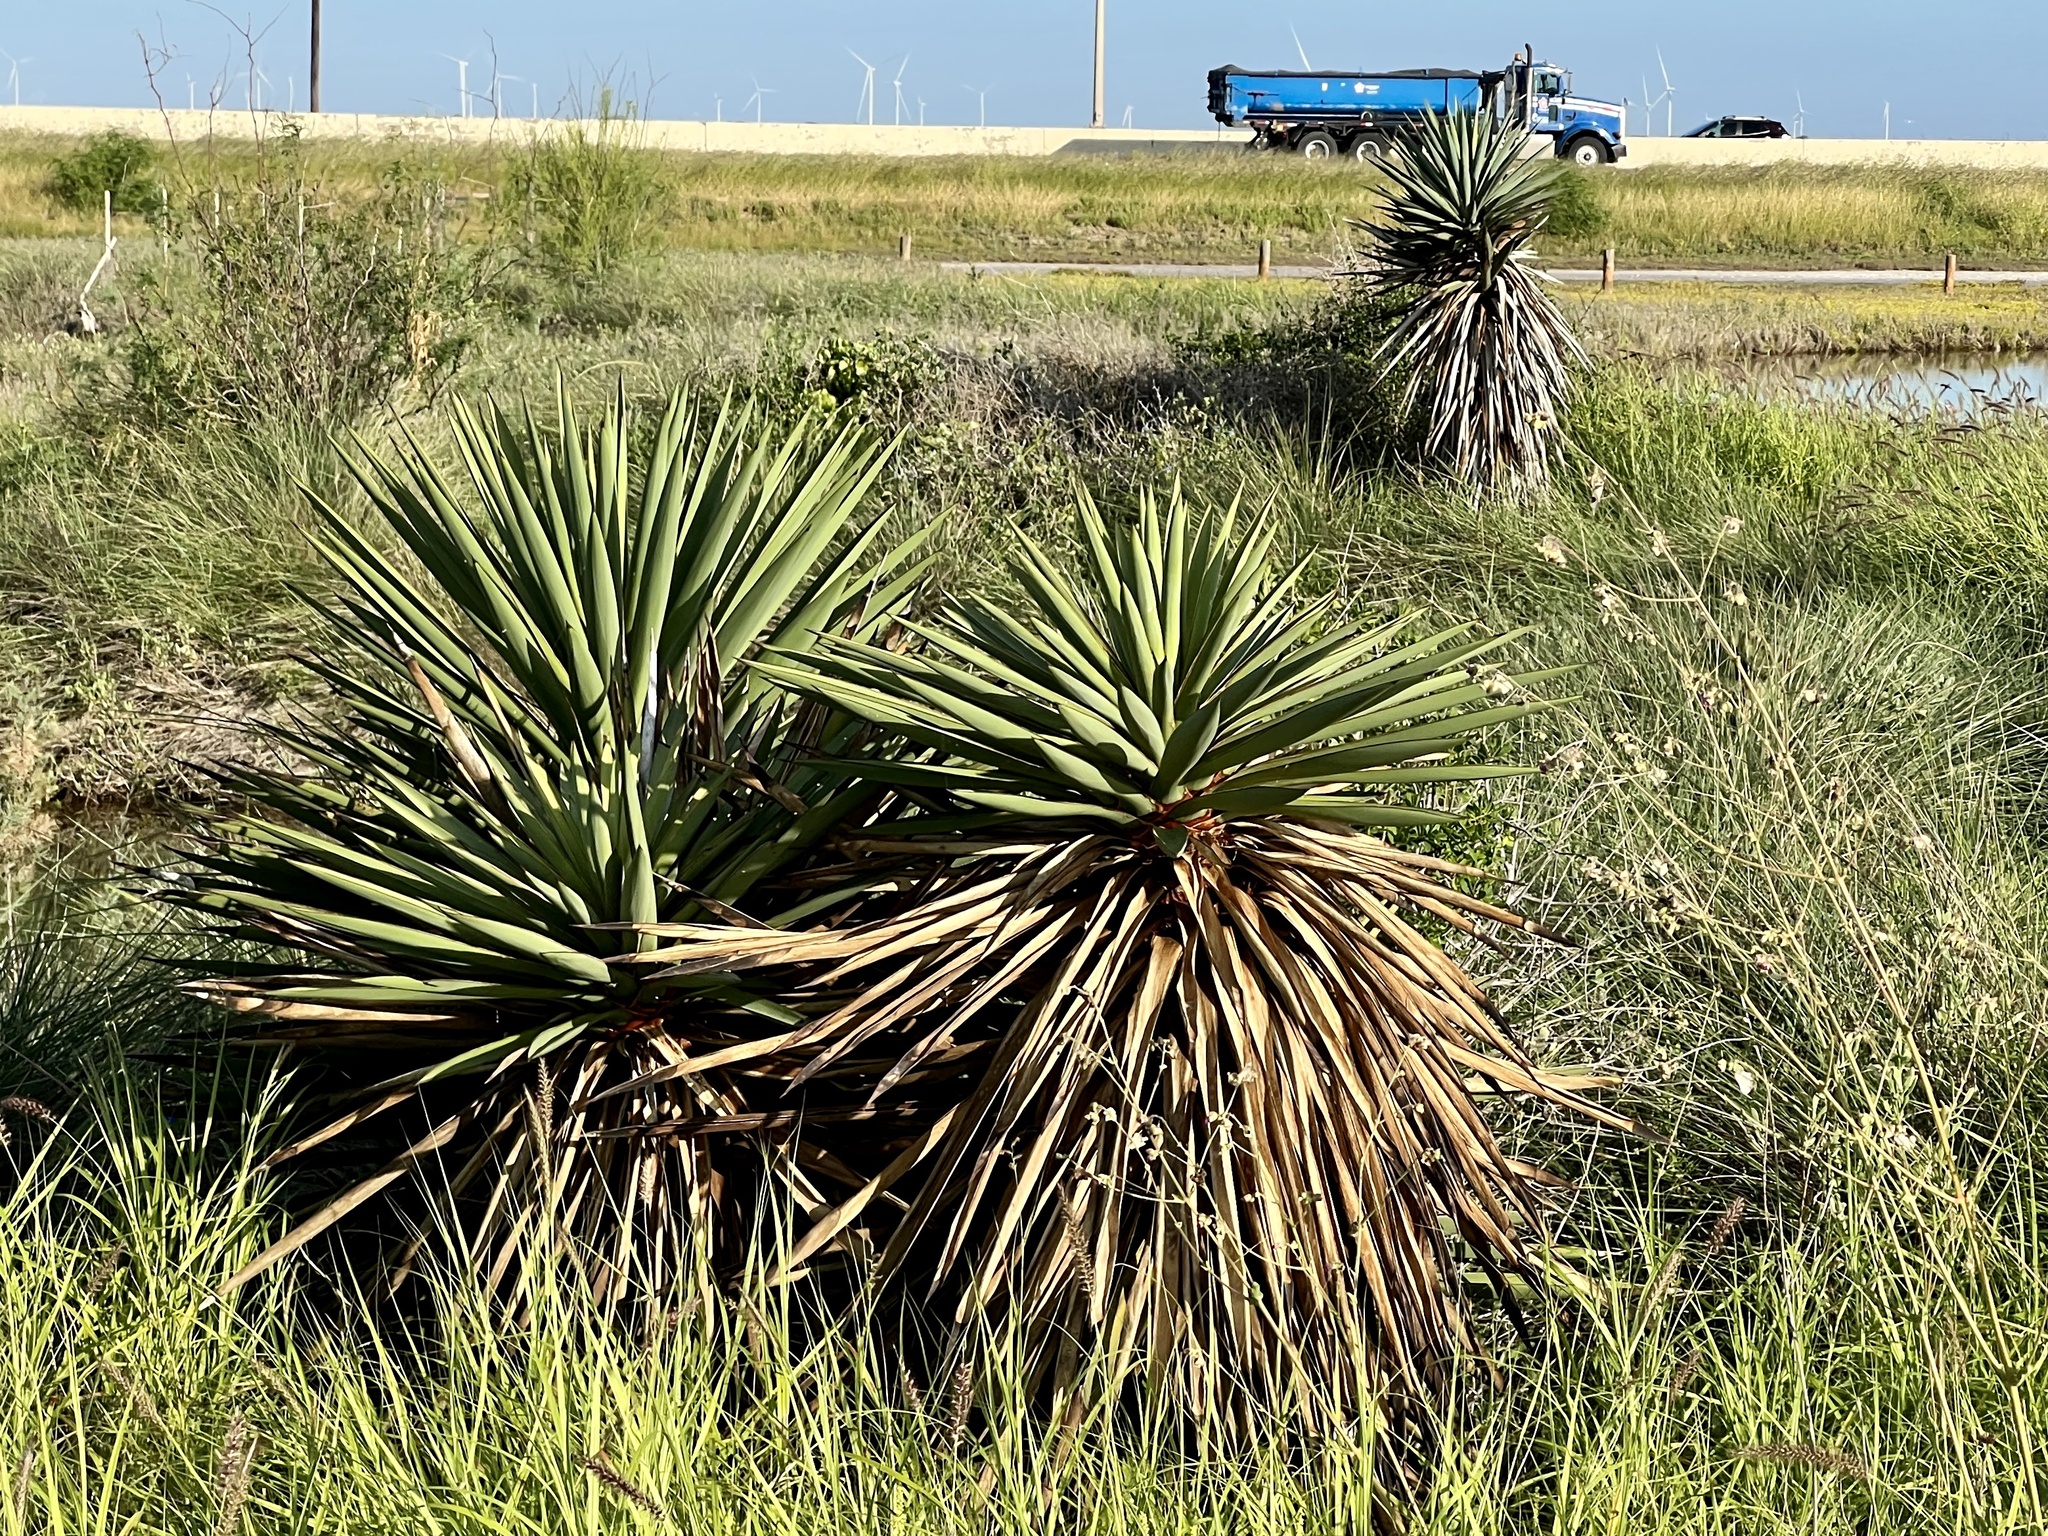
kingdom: Plantae
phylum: Tracheophyta
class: Liliopsida
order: Asparagales
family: Asparagaceae
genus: Yucca
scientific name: Yucca treculiana
